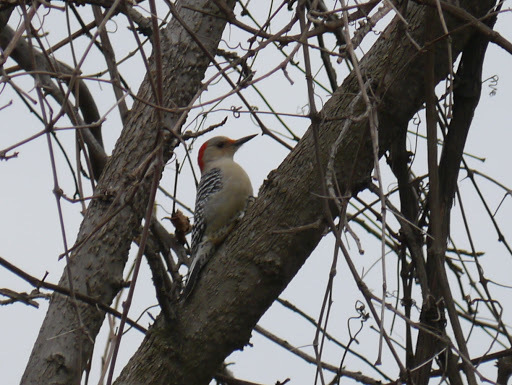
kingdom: Animalia
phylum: Chordata
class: Aves
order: Piciformes
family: Picidae
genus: Melanerpes
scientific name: Melanerpes carolinus
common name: Red-bellied woodpecker
